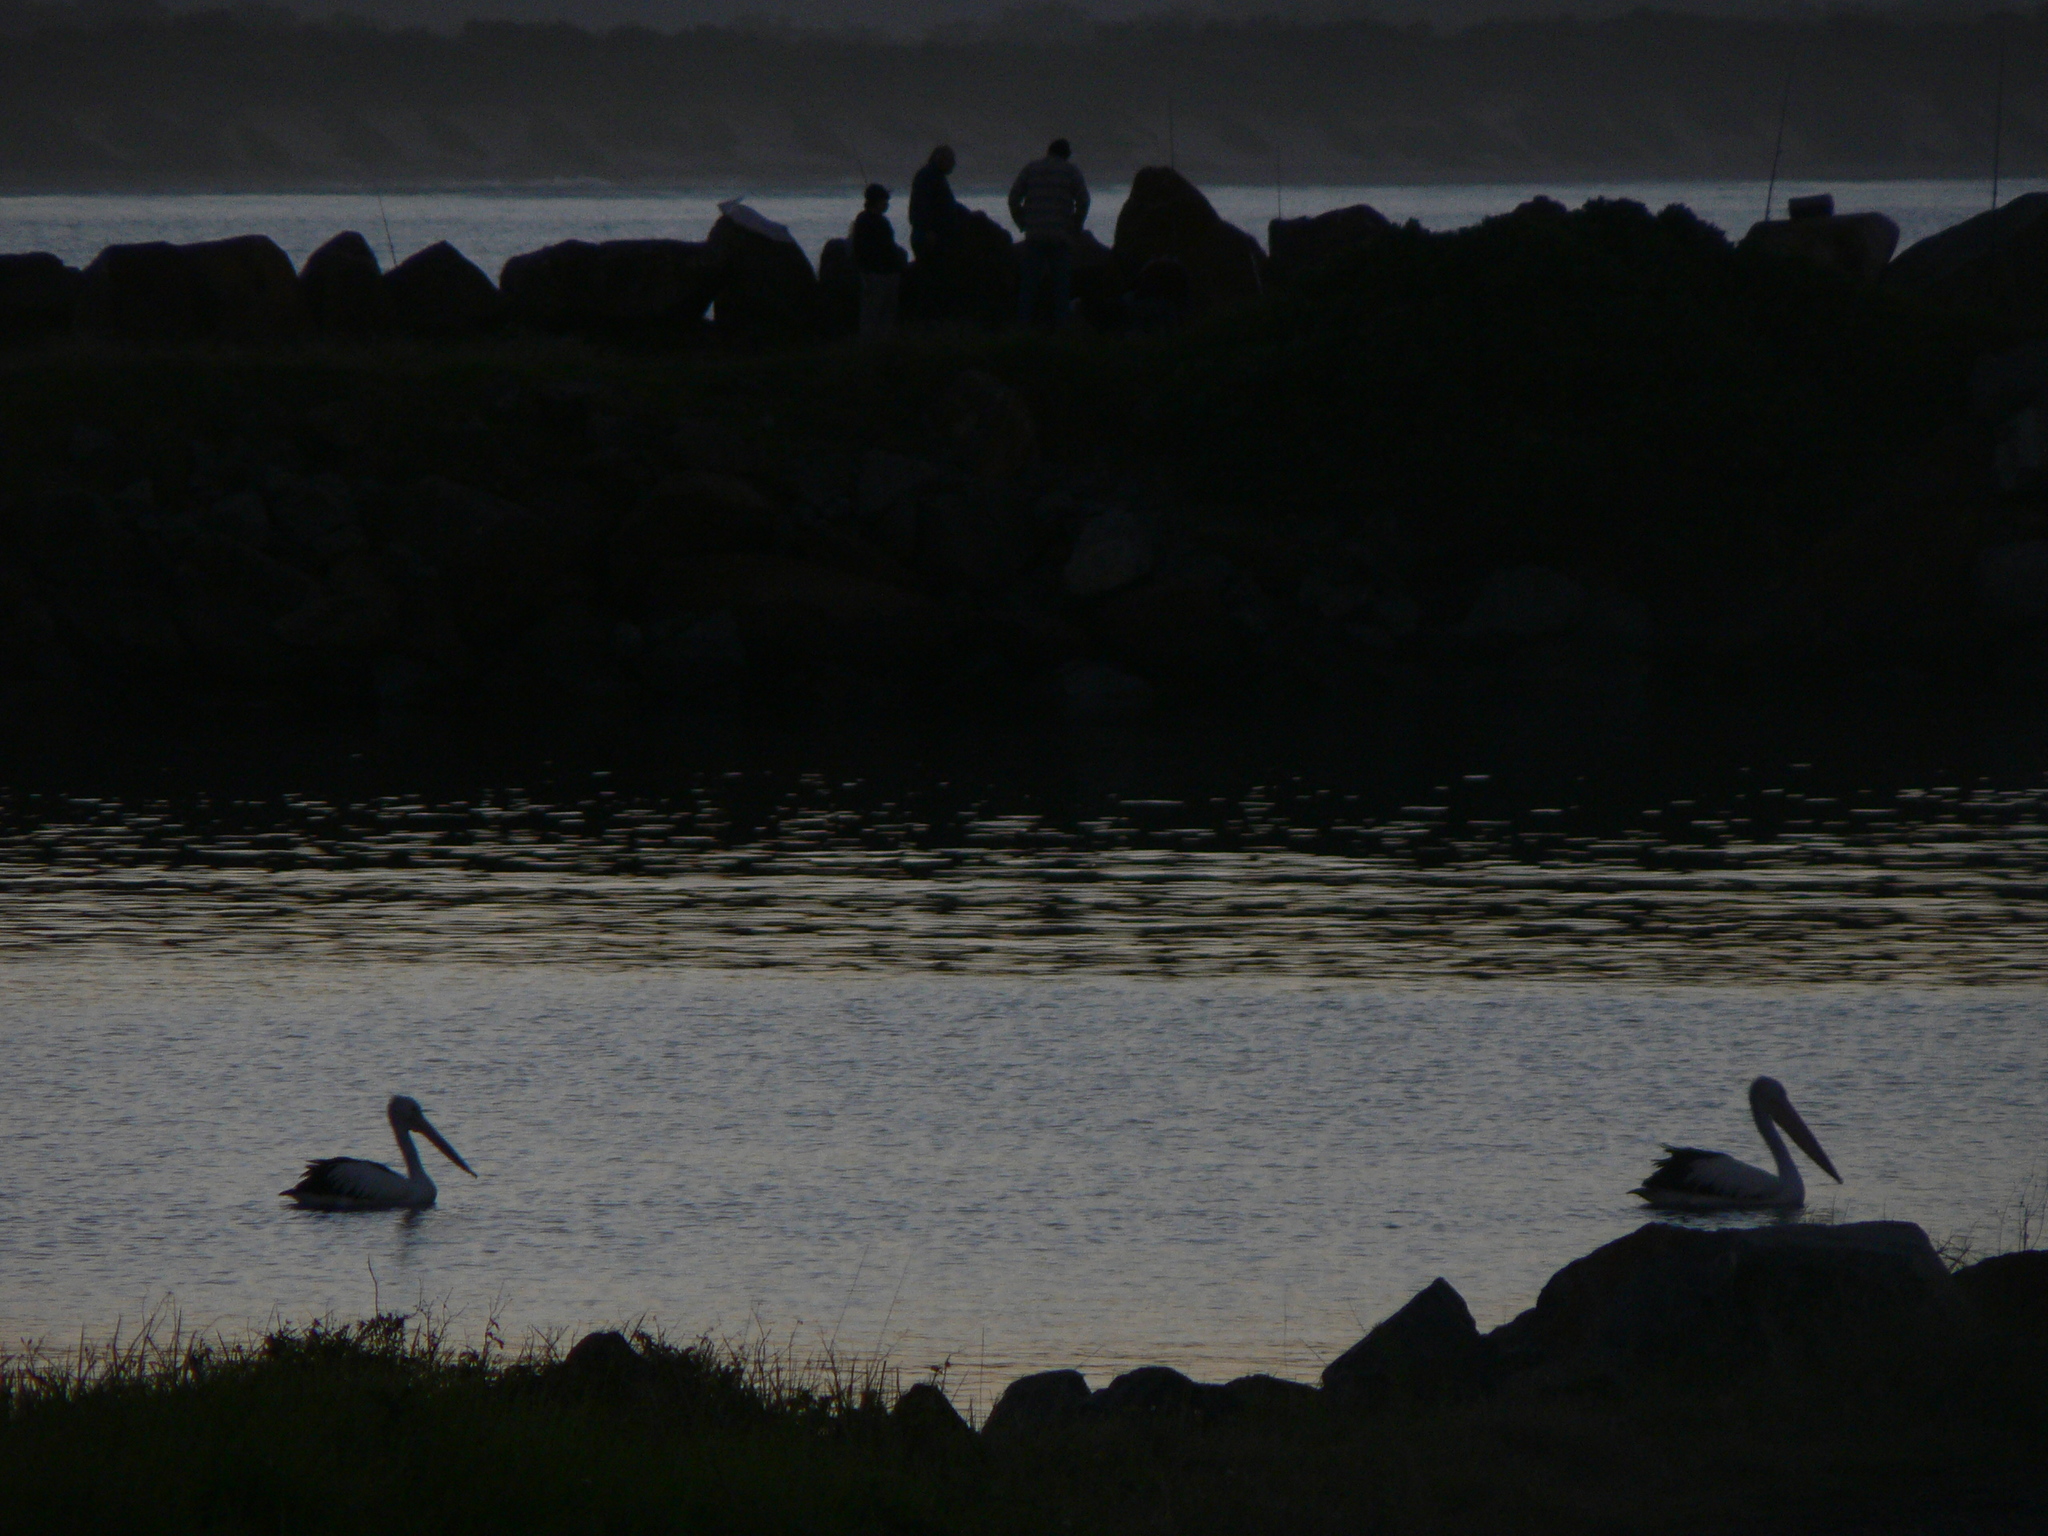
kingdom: Animalia
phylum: Chordata
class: Aves
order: Pelecaniformes
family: Pelecanidae
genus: Pelecanus
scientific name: Pelecanus conspicillatus
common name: Australian pelican
